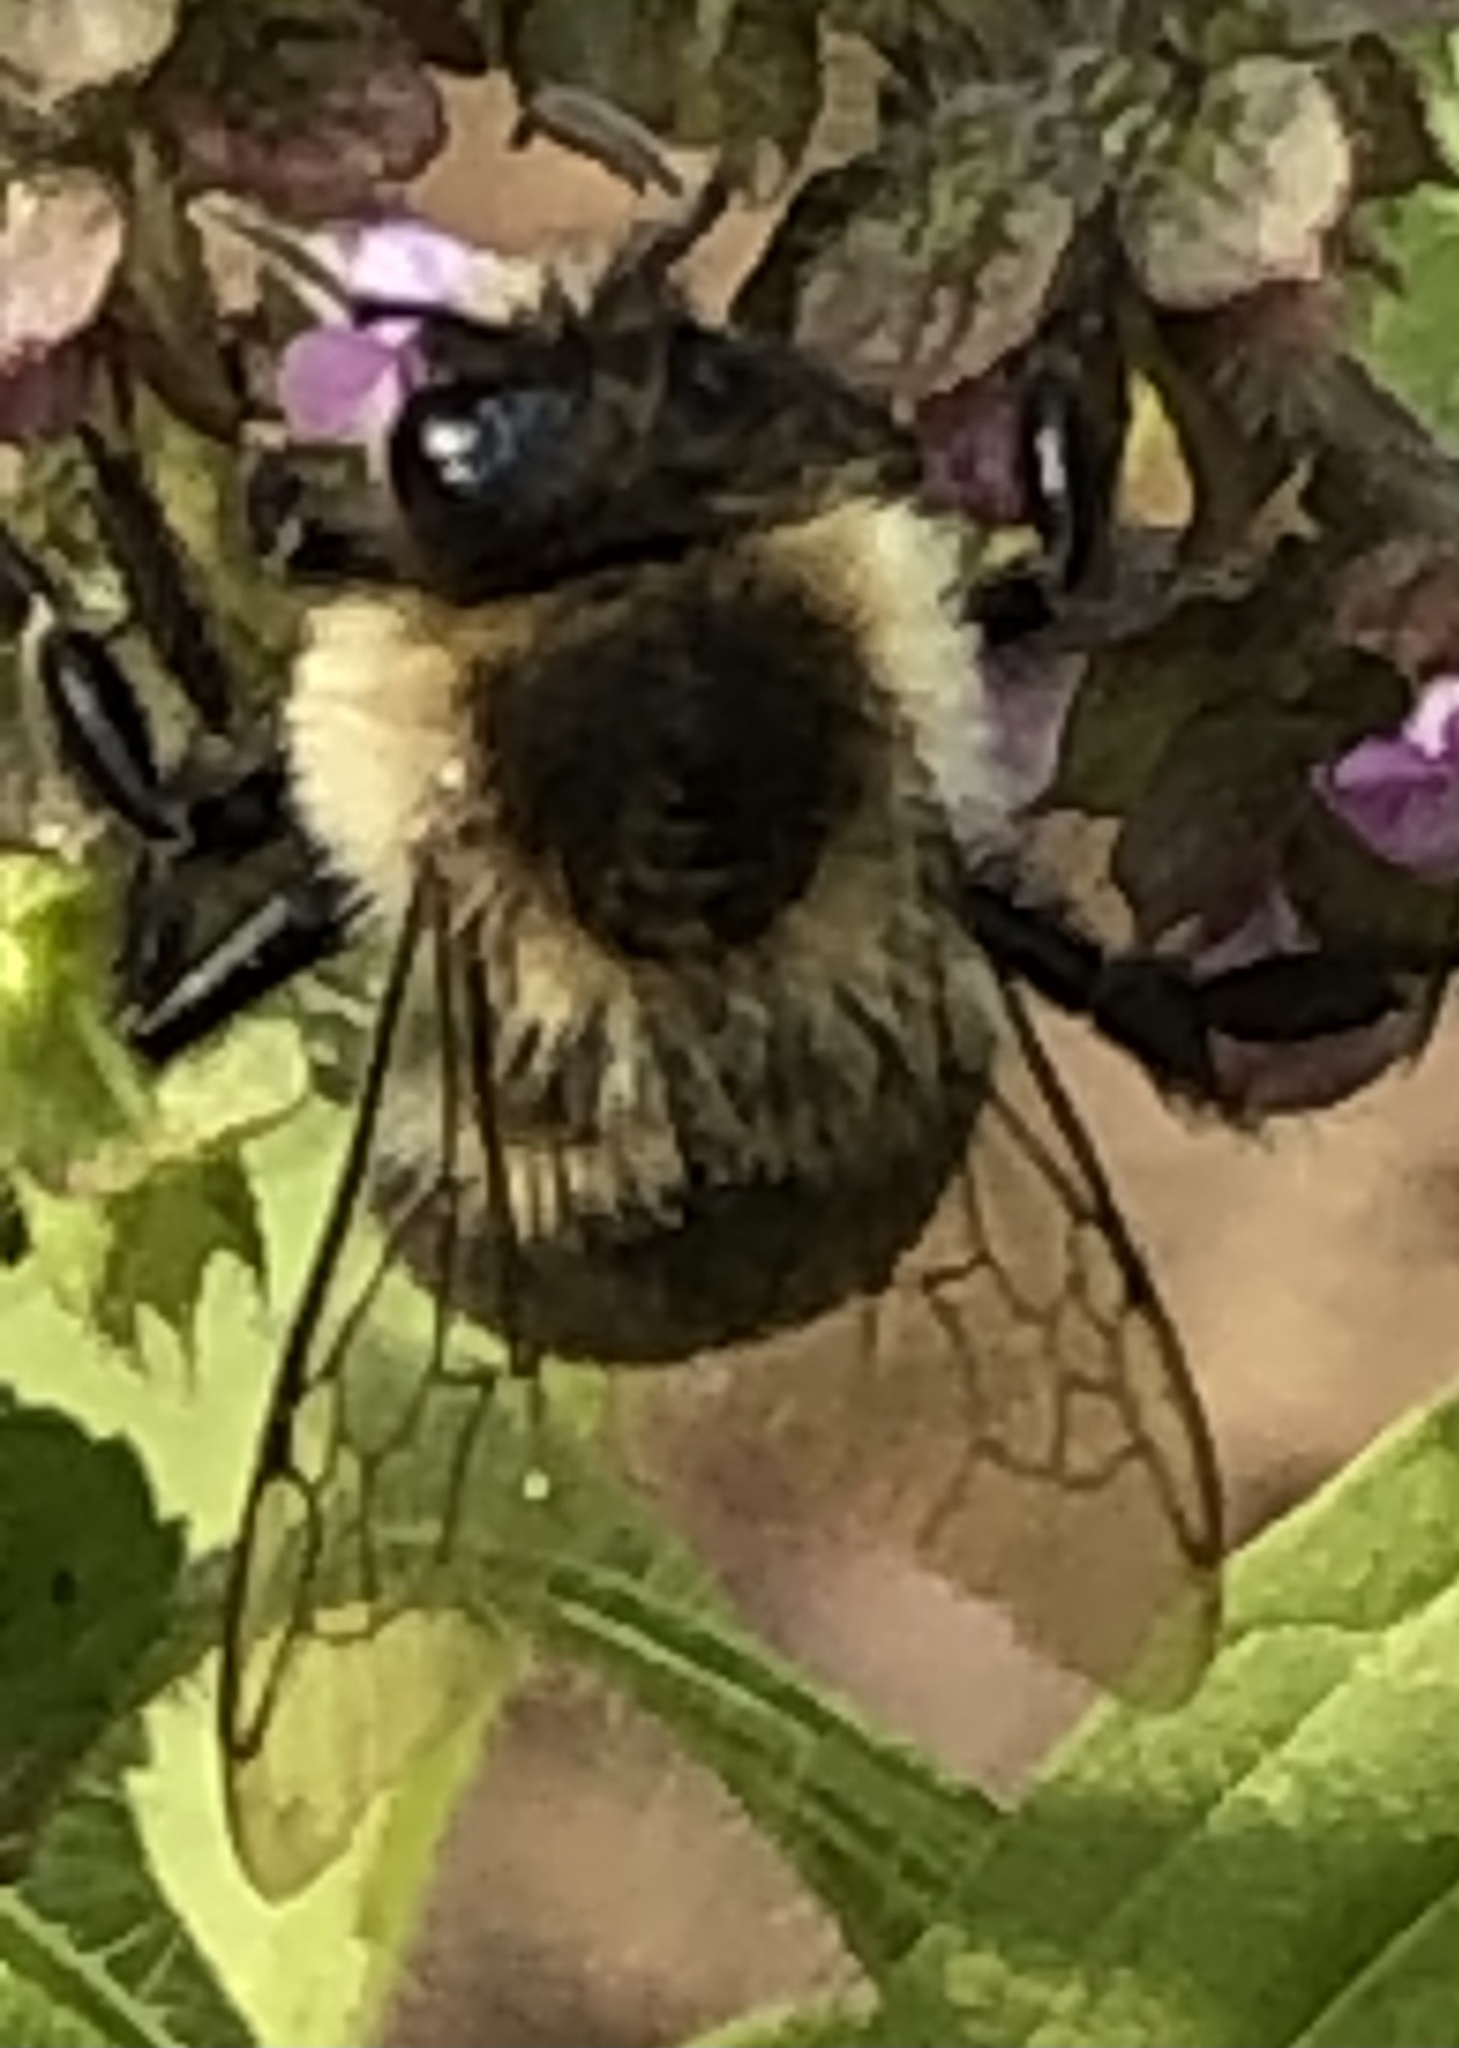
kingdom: Animalia
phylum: Arthropoda
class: Insecta
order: Hymenoptera
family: Apidae
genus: Bombus
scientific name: Bombus impatiens
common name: Common eastern bumble bee
